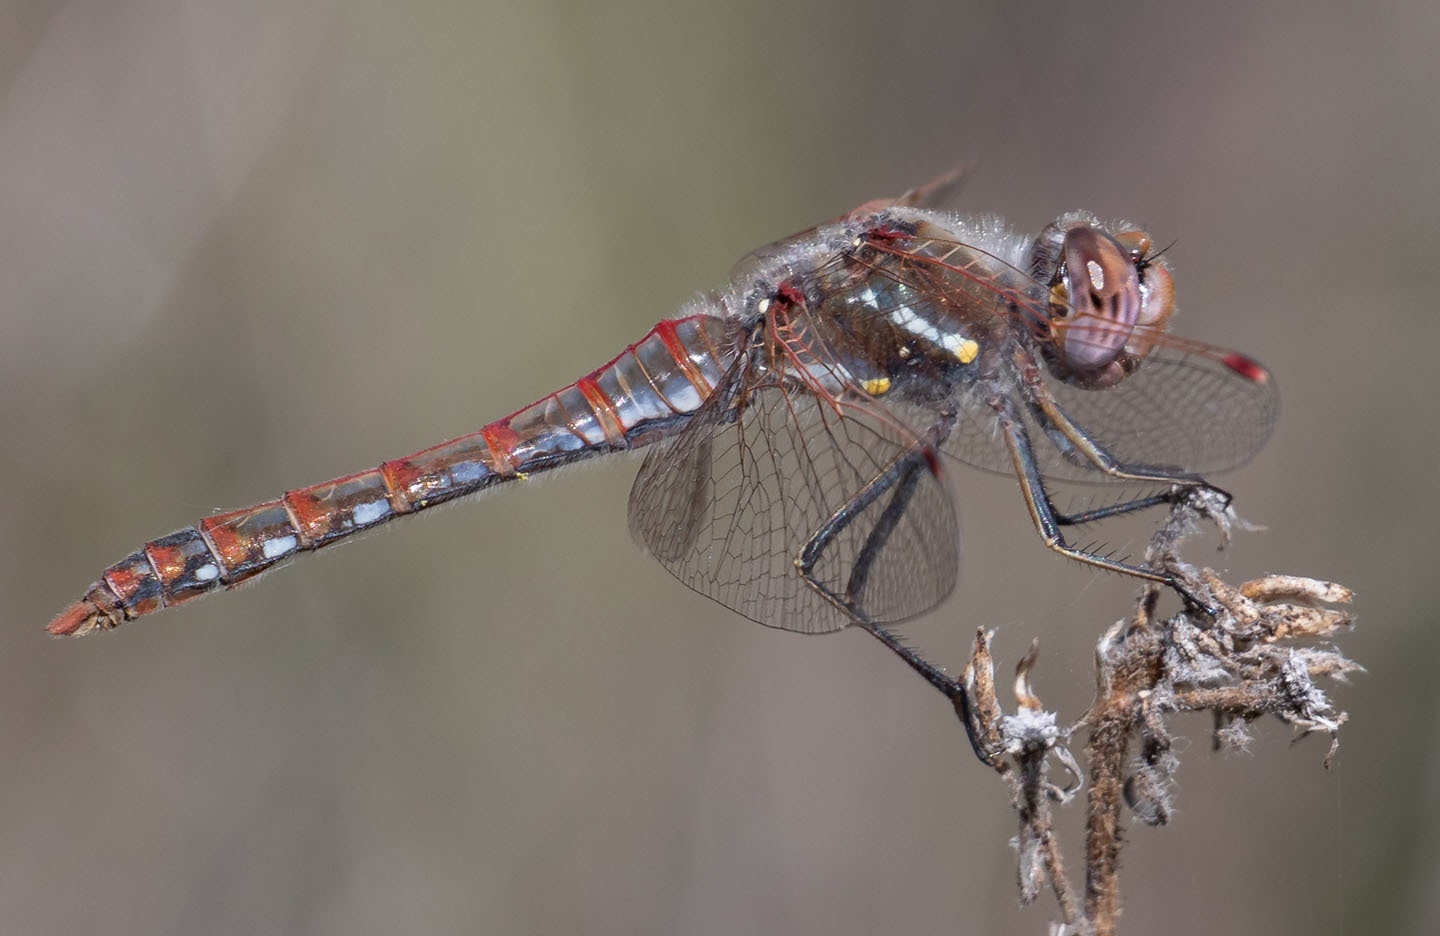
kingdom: Animalia
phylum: Arthropoda
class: Insecta
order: Odonata
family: Libellulidae
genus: Sympetrum
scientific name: Sympetrum corruptum
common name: Variegated meadowhawk
